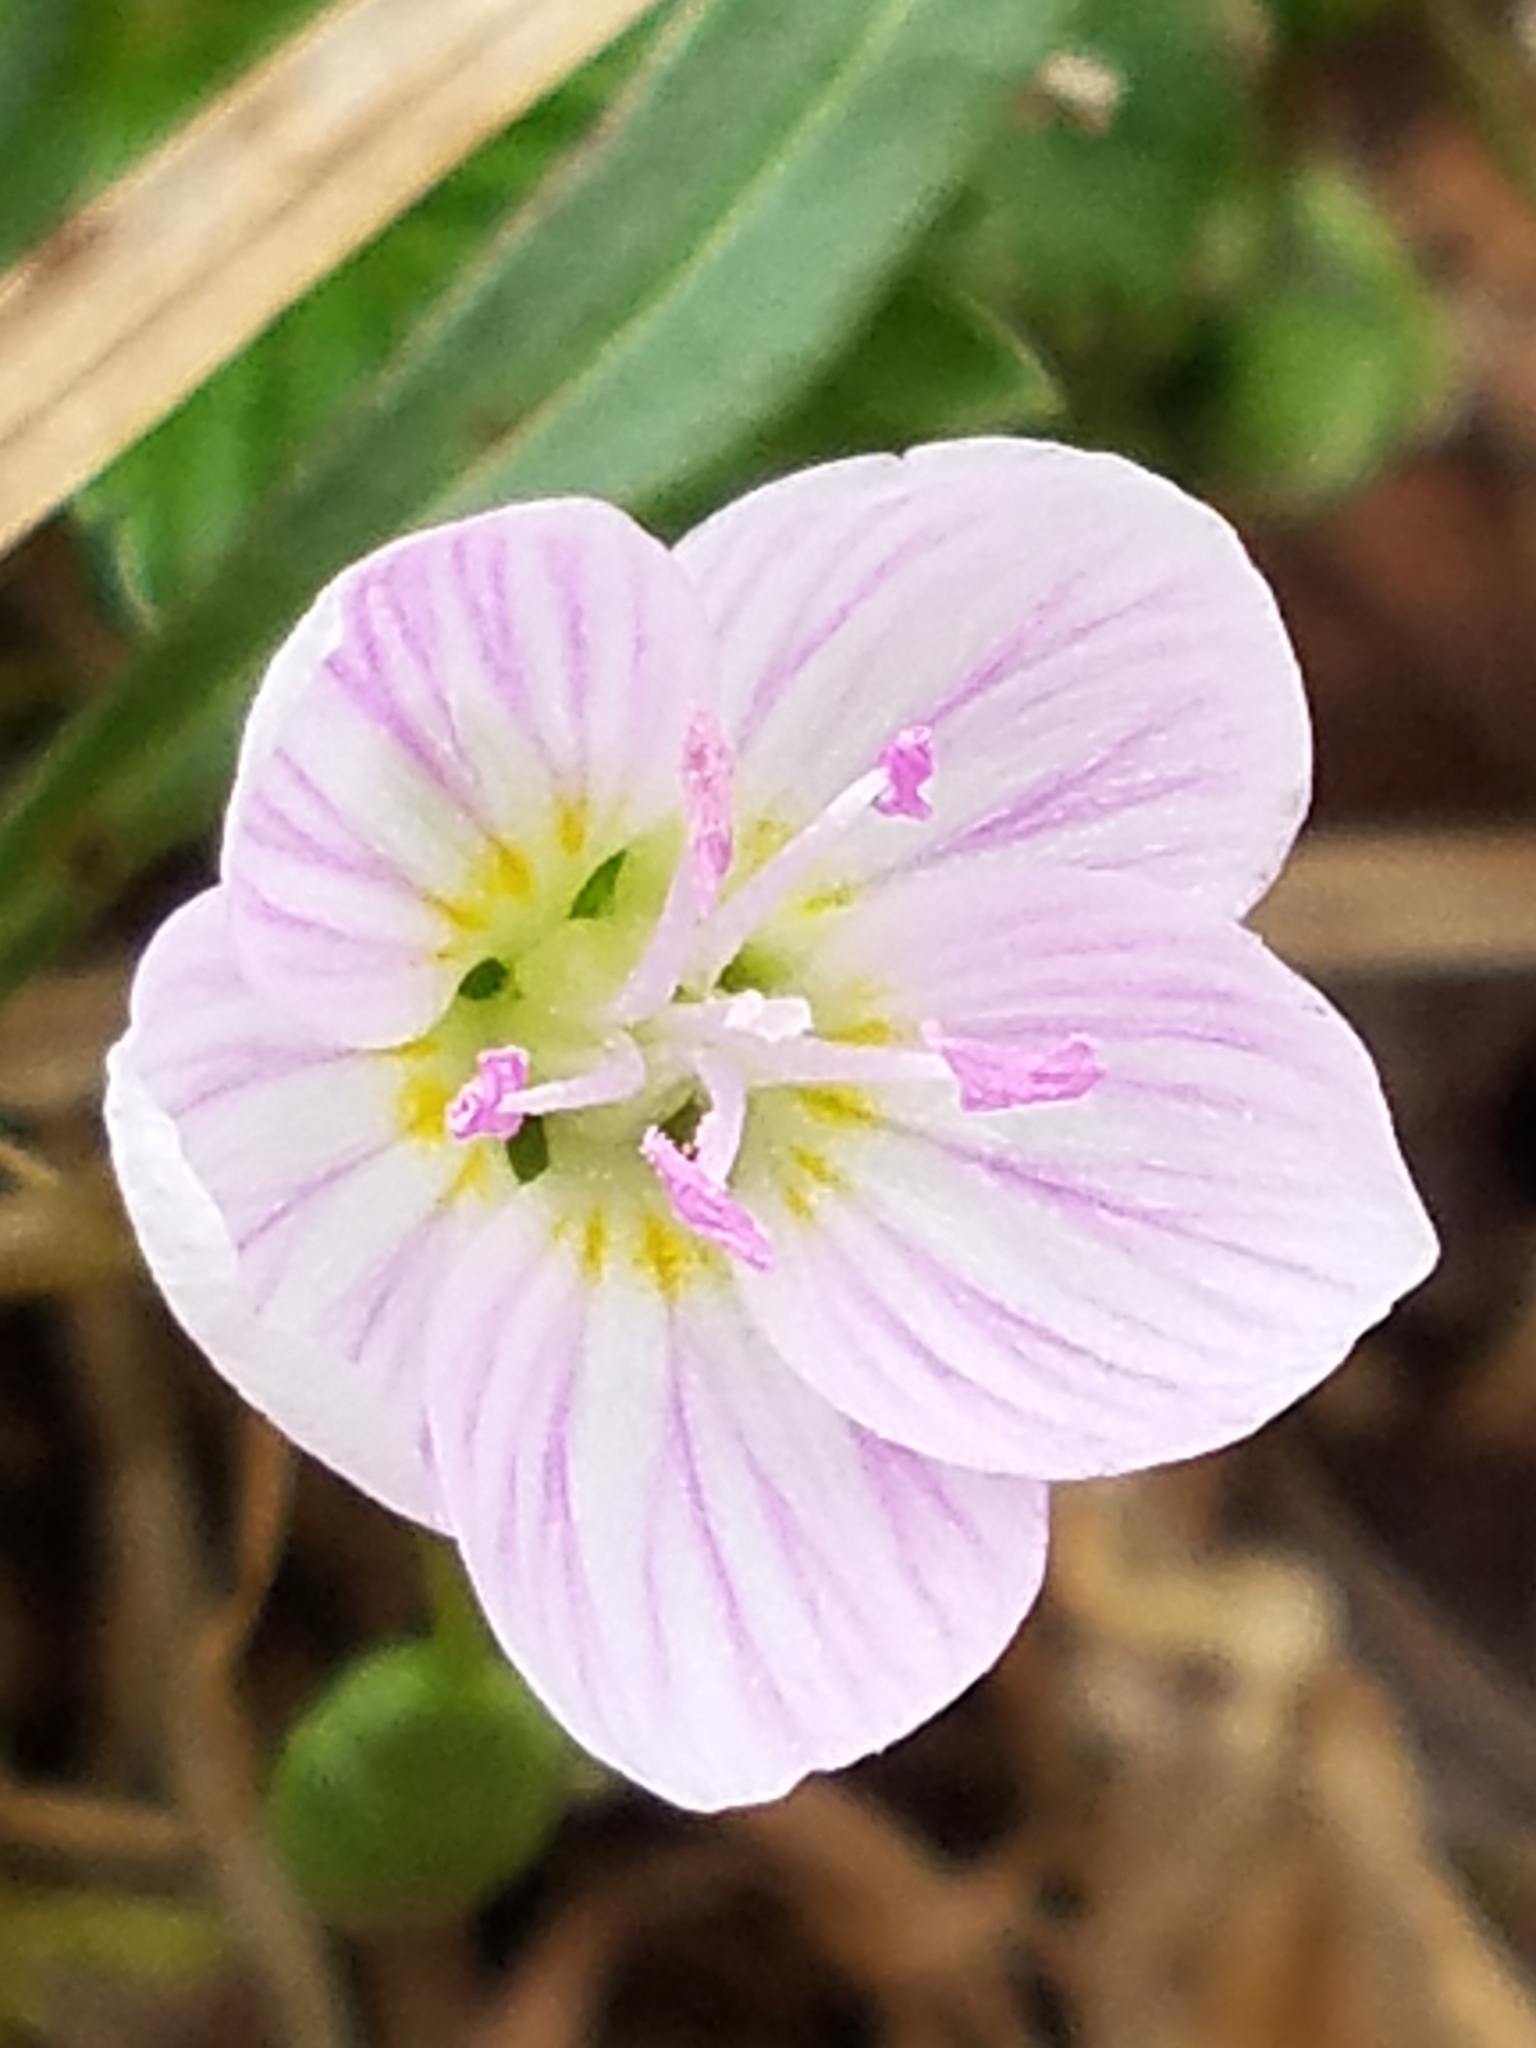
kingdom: Plantae
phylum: Tracheophyta
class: Magnoliopsida
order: Caryophyllales
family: Montiaceae
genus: Claytonia
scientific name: Claytonia virginica
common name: Virginia springbeauty
